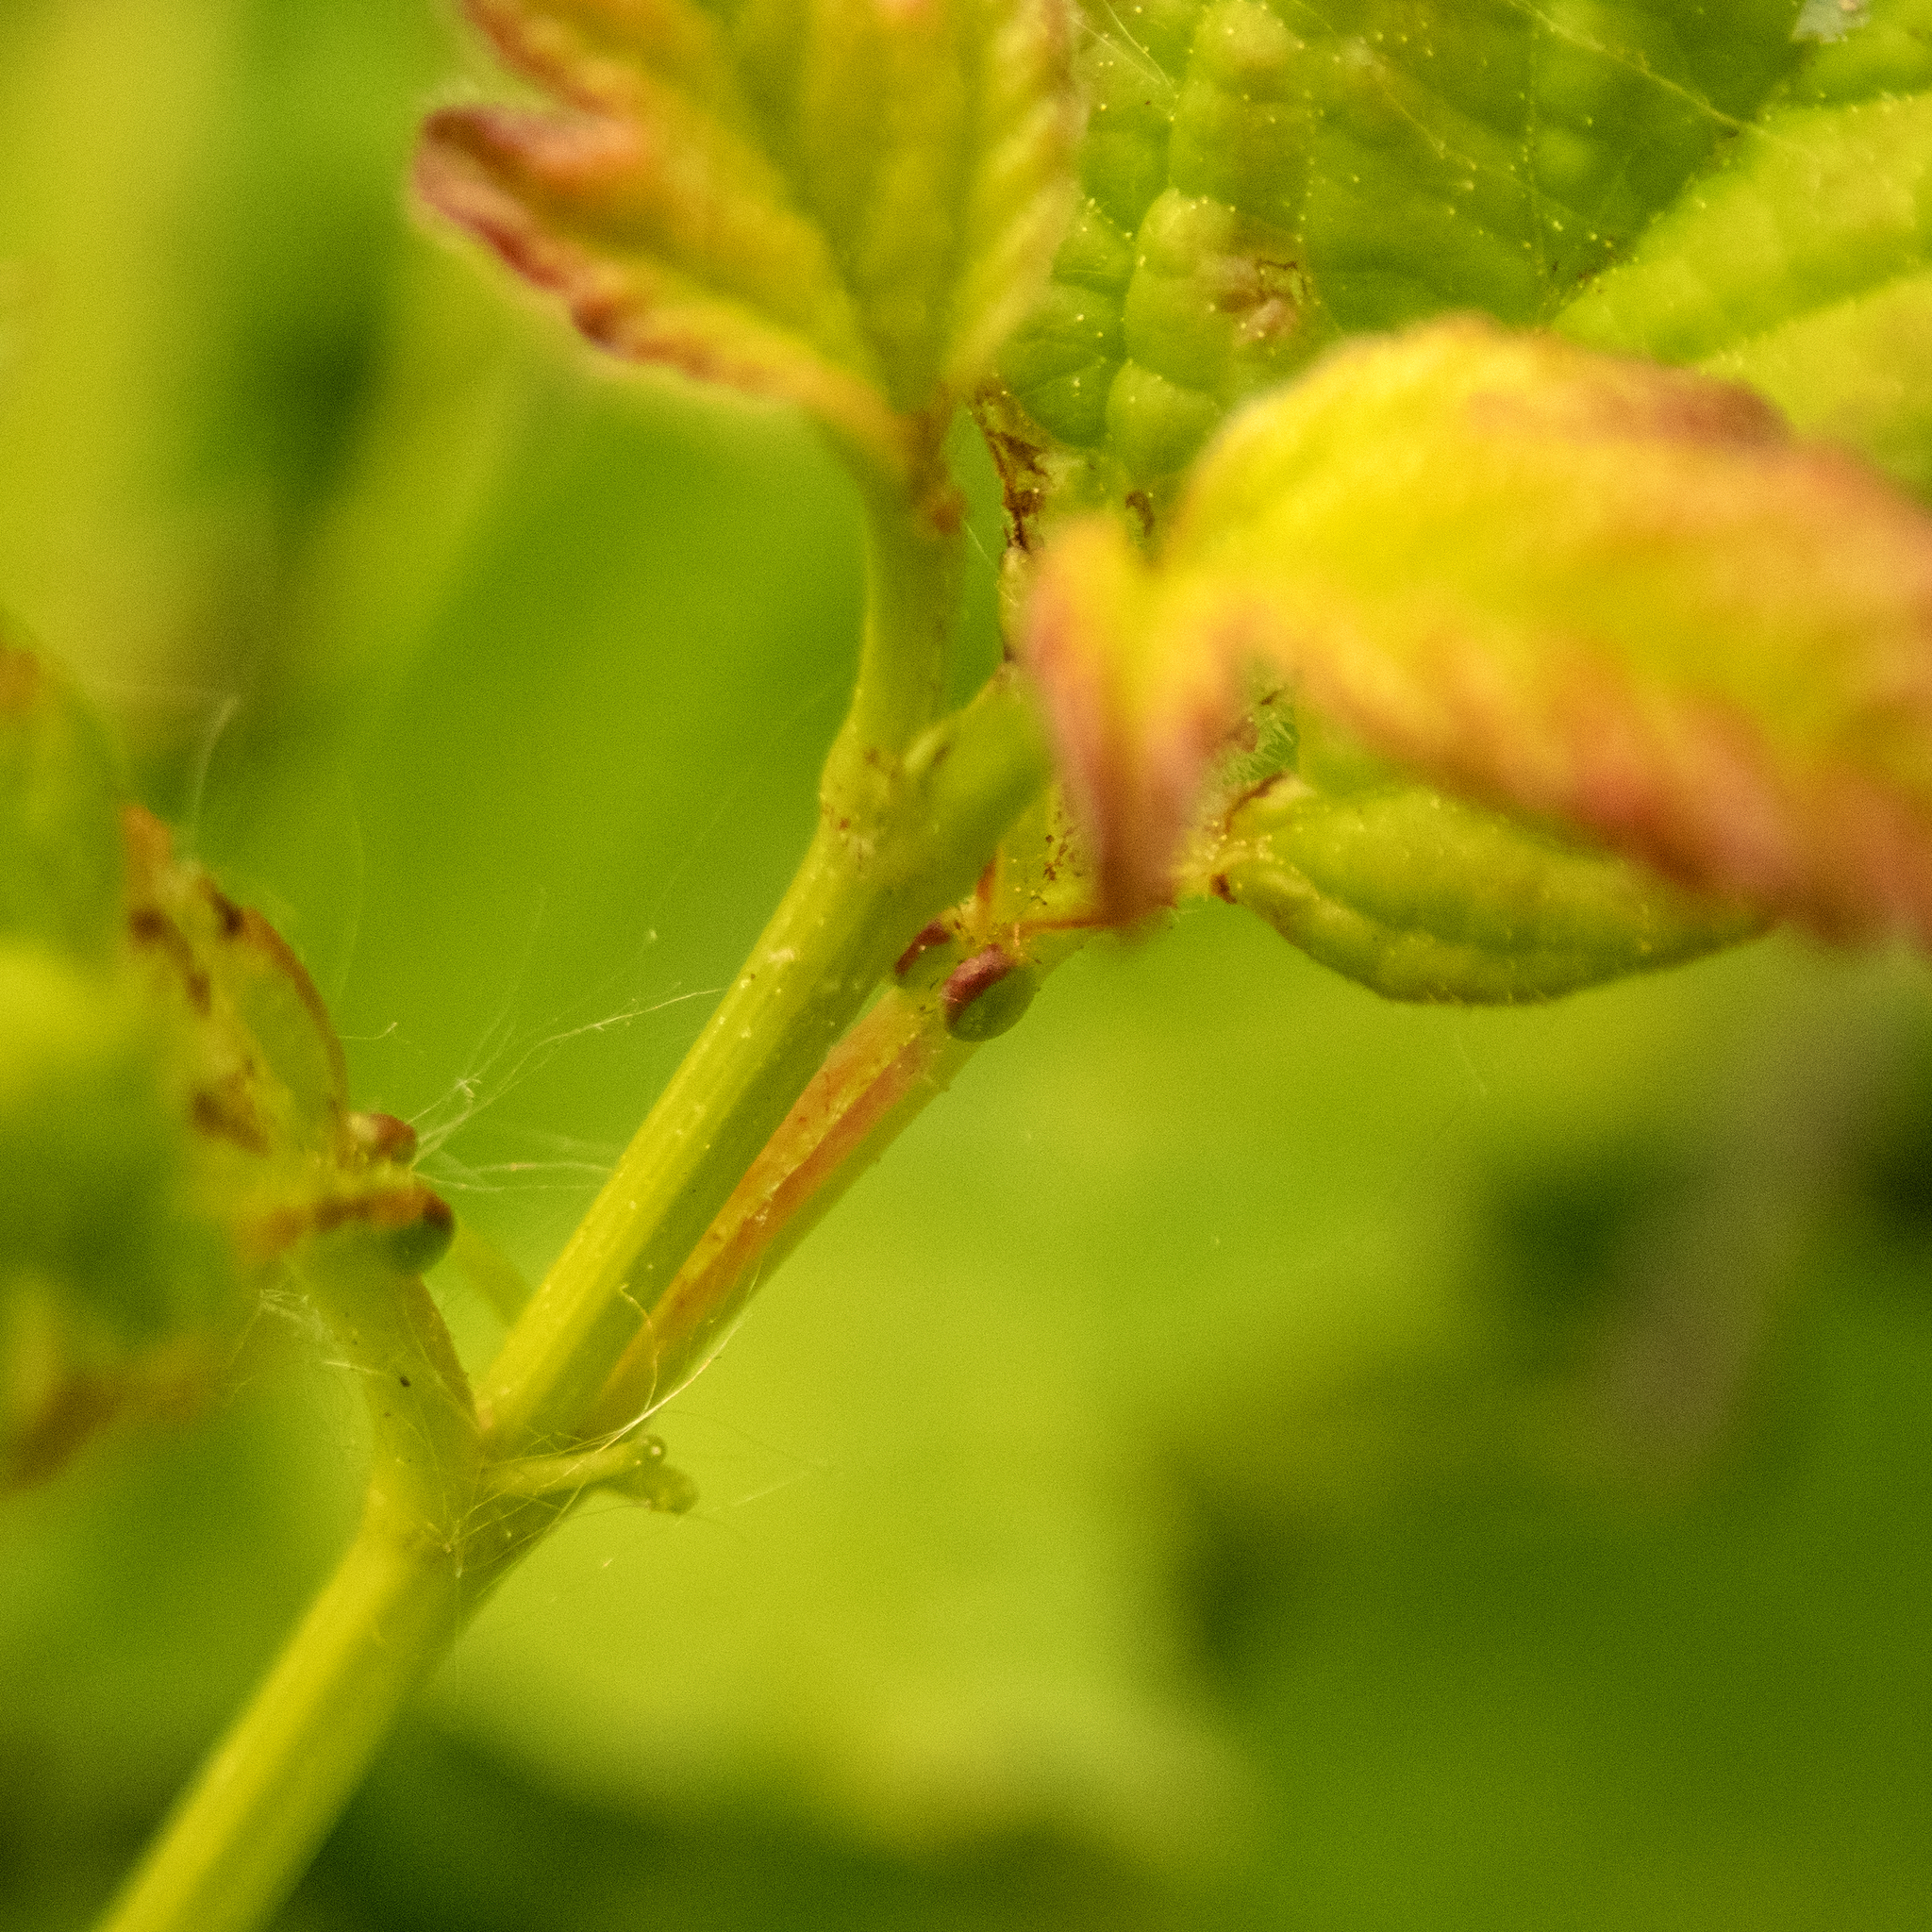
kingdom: Plantae
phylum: Tracheophyta
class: Magnoliopsida
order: Dipsacales
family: Viburnaceae
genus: Viburnum
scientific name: Viburnum opulus
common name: Guelder-rose
